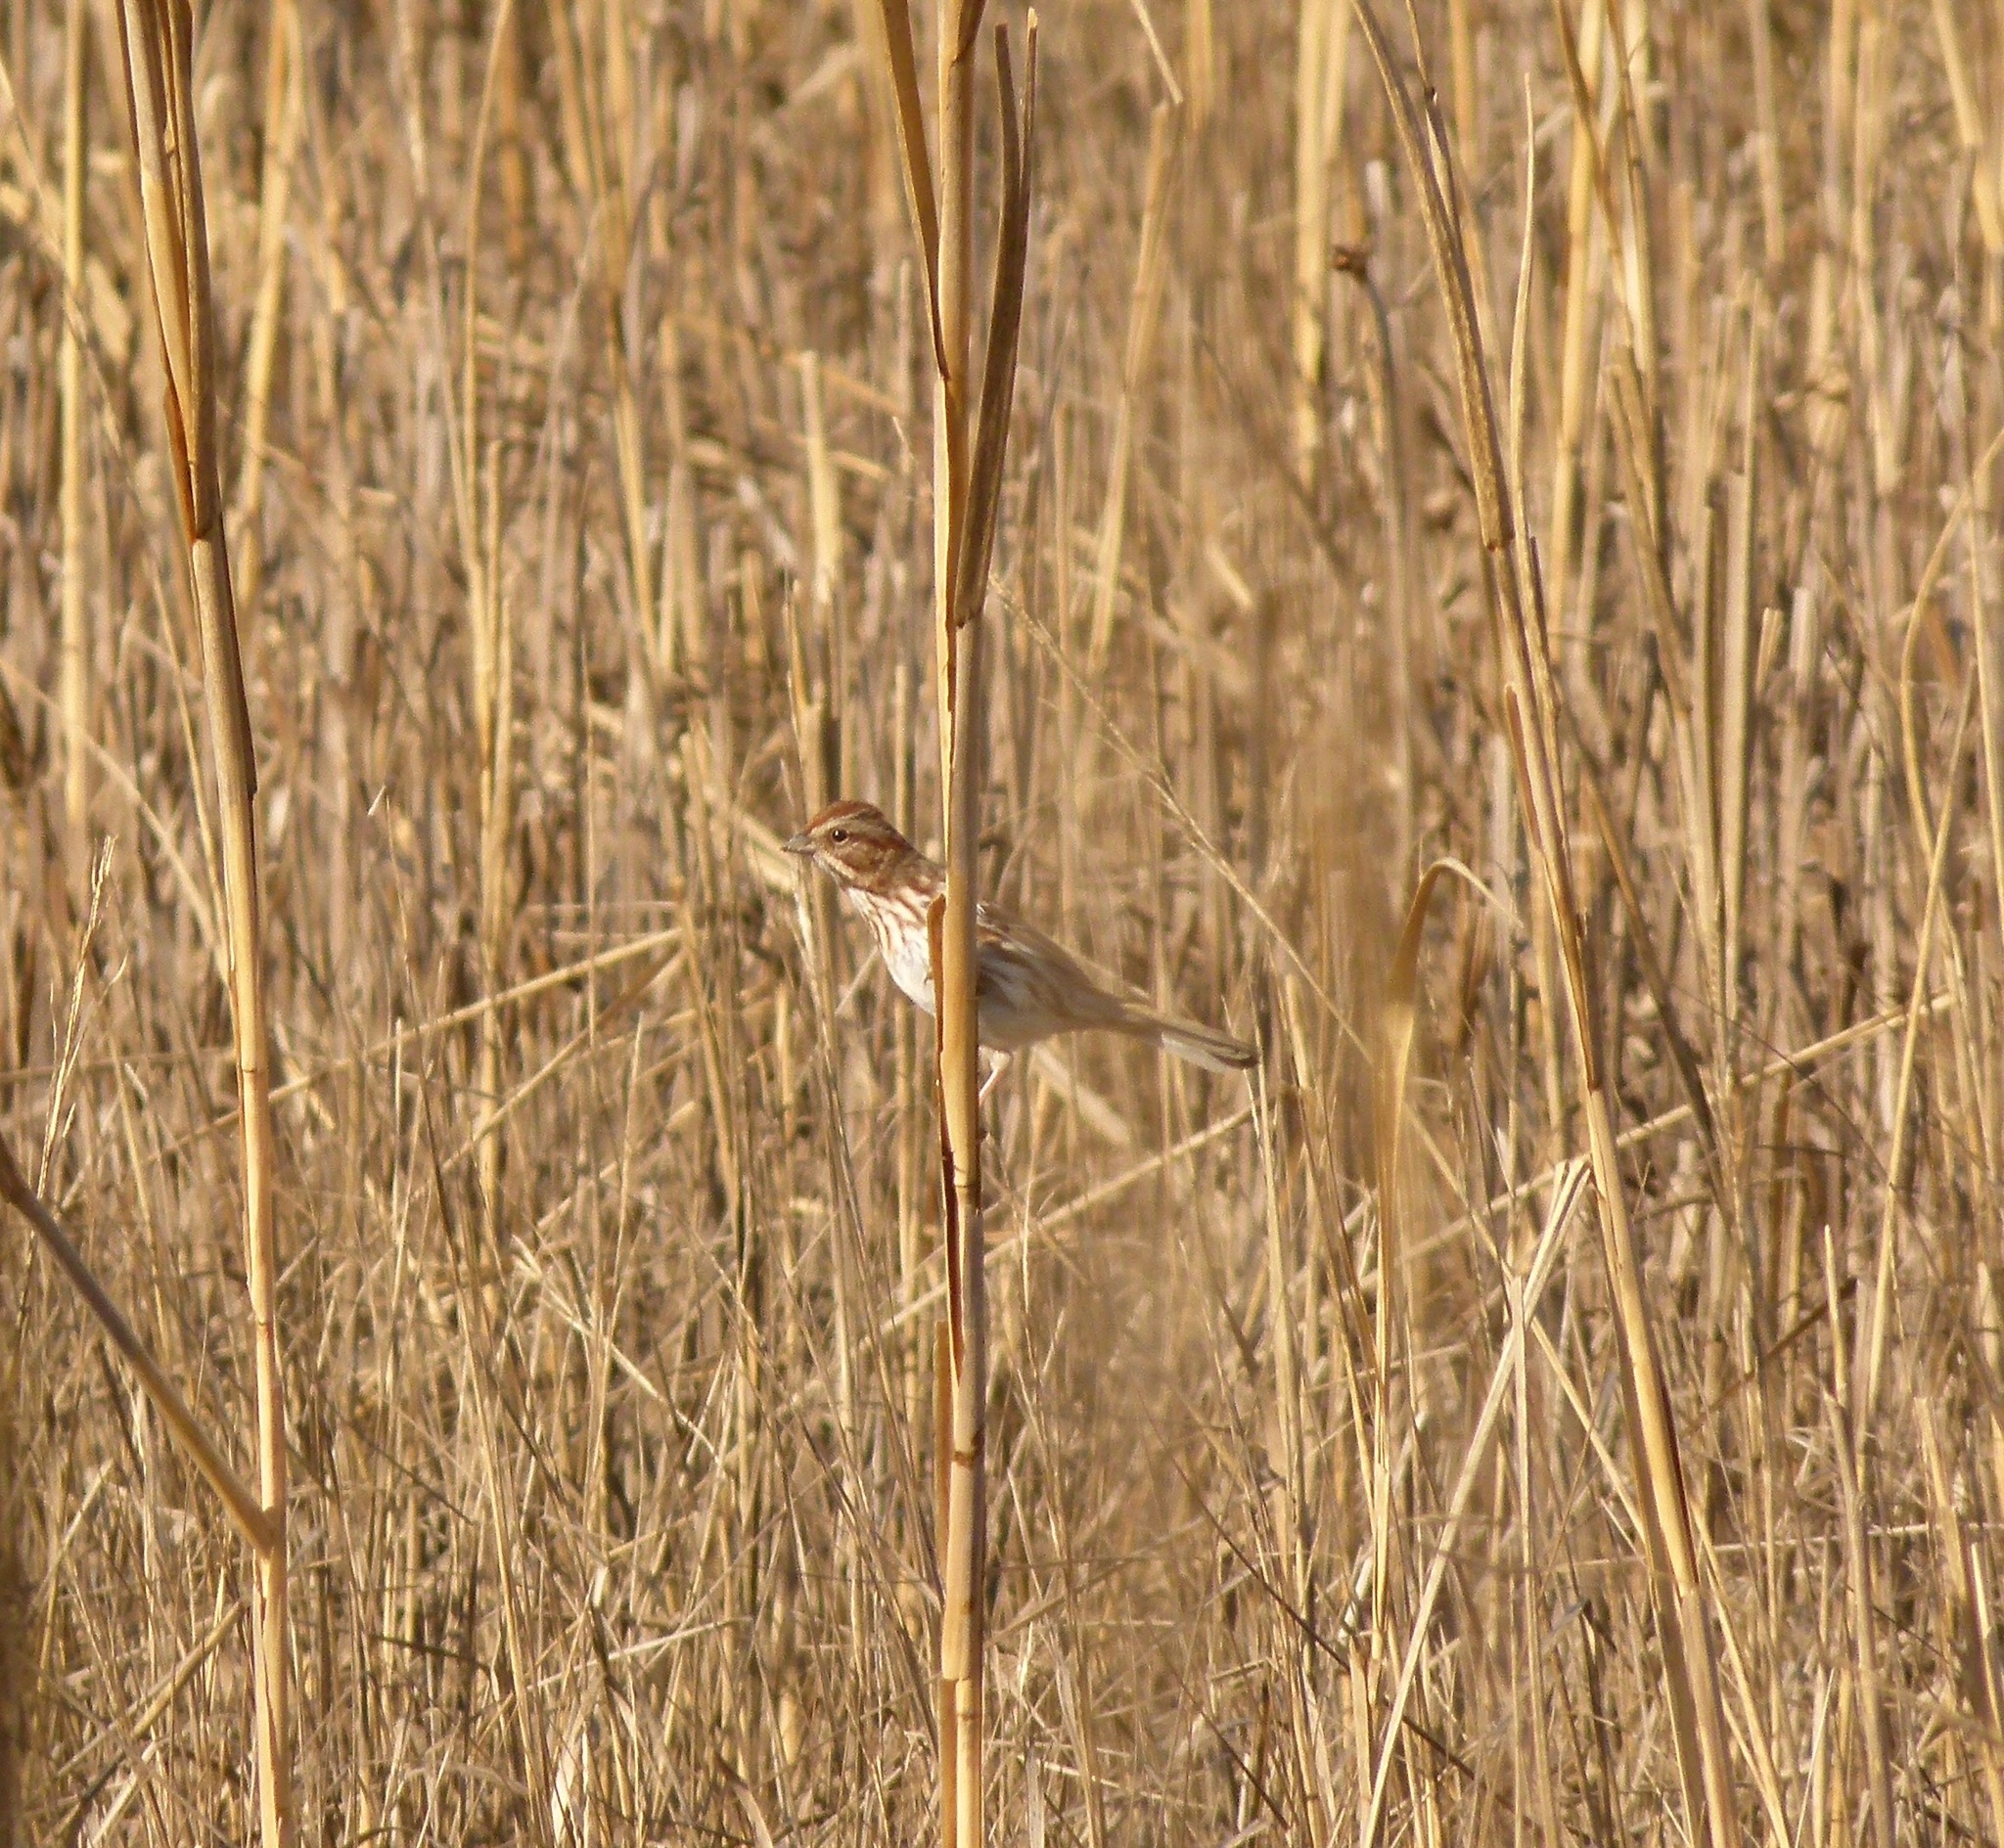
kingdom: Animalia
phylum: Chordata
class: Aves
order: Passeriformes
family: Passerellidae
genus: Melospiza
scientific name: Melospiza melodia
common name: Song sparrow
